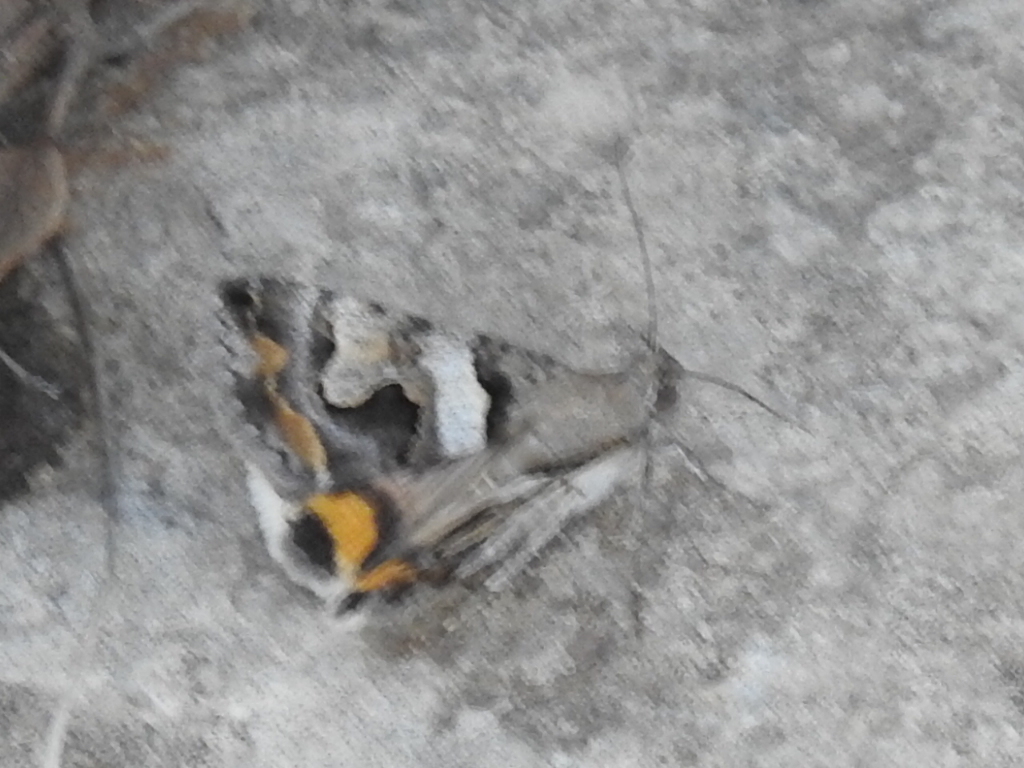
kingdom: Animalia
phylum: Arthropoda
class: Insecta
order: Lepidoptera
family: Erebidae
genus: Bulia
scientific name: Bulia deducta
